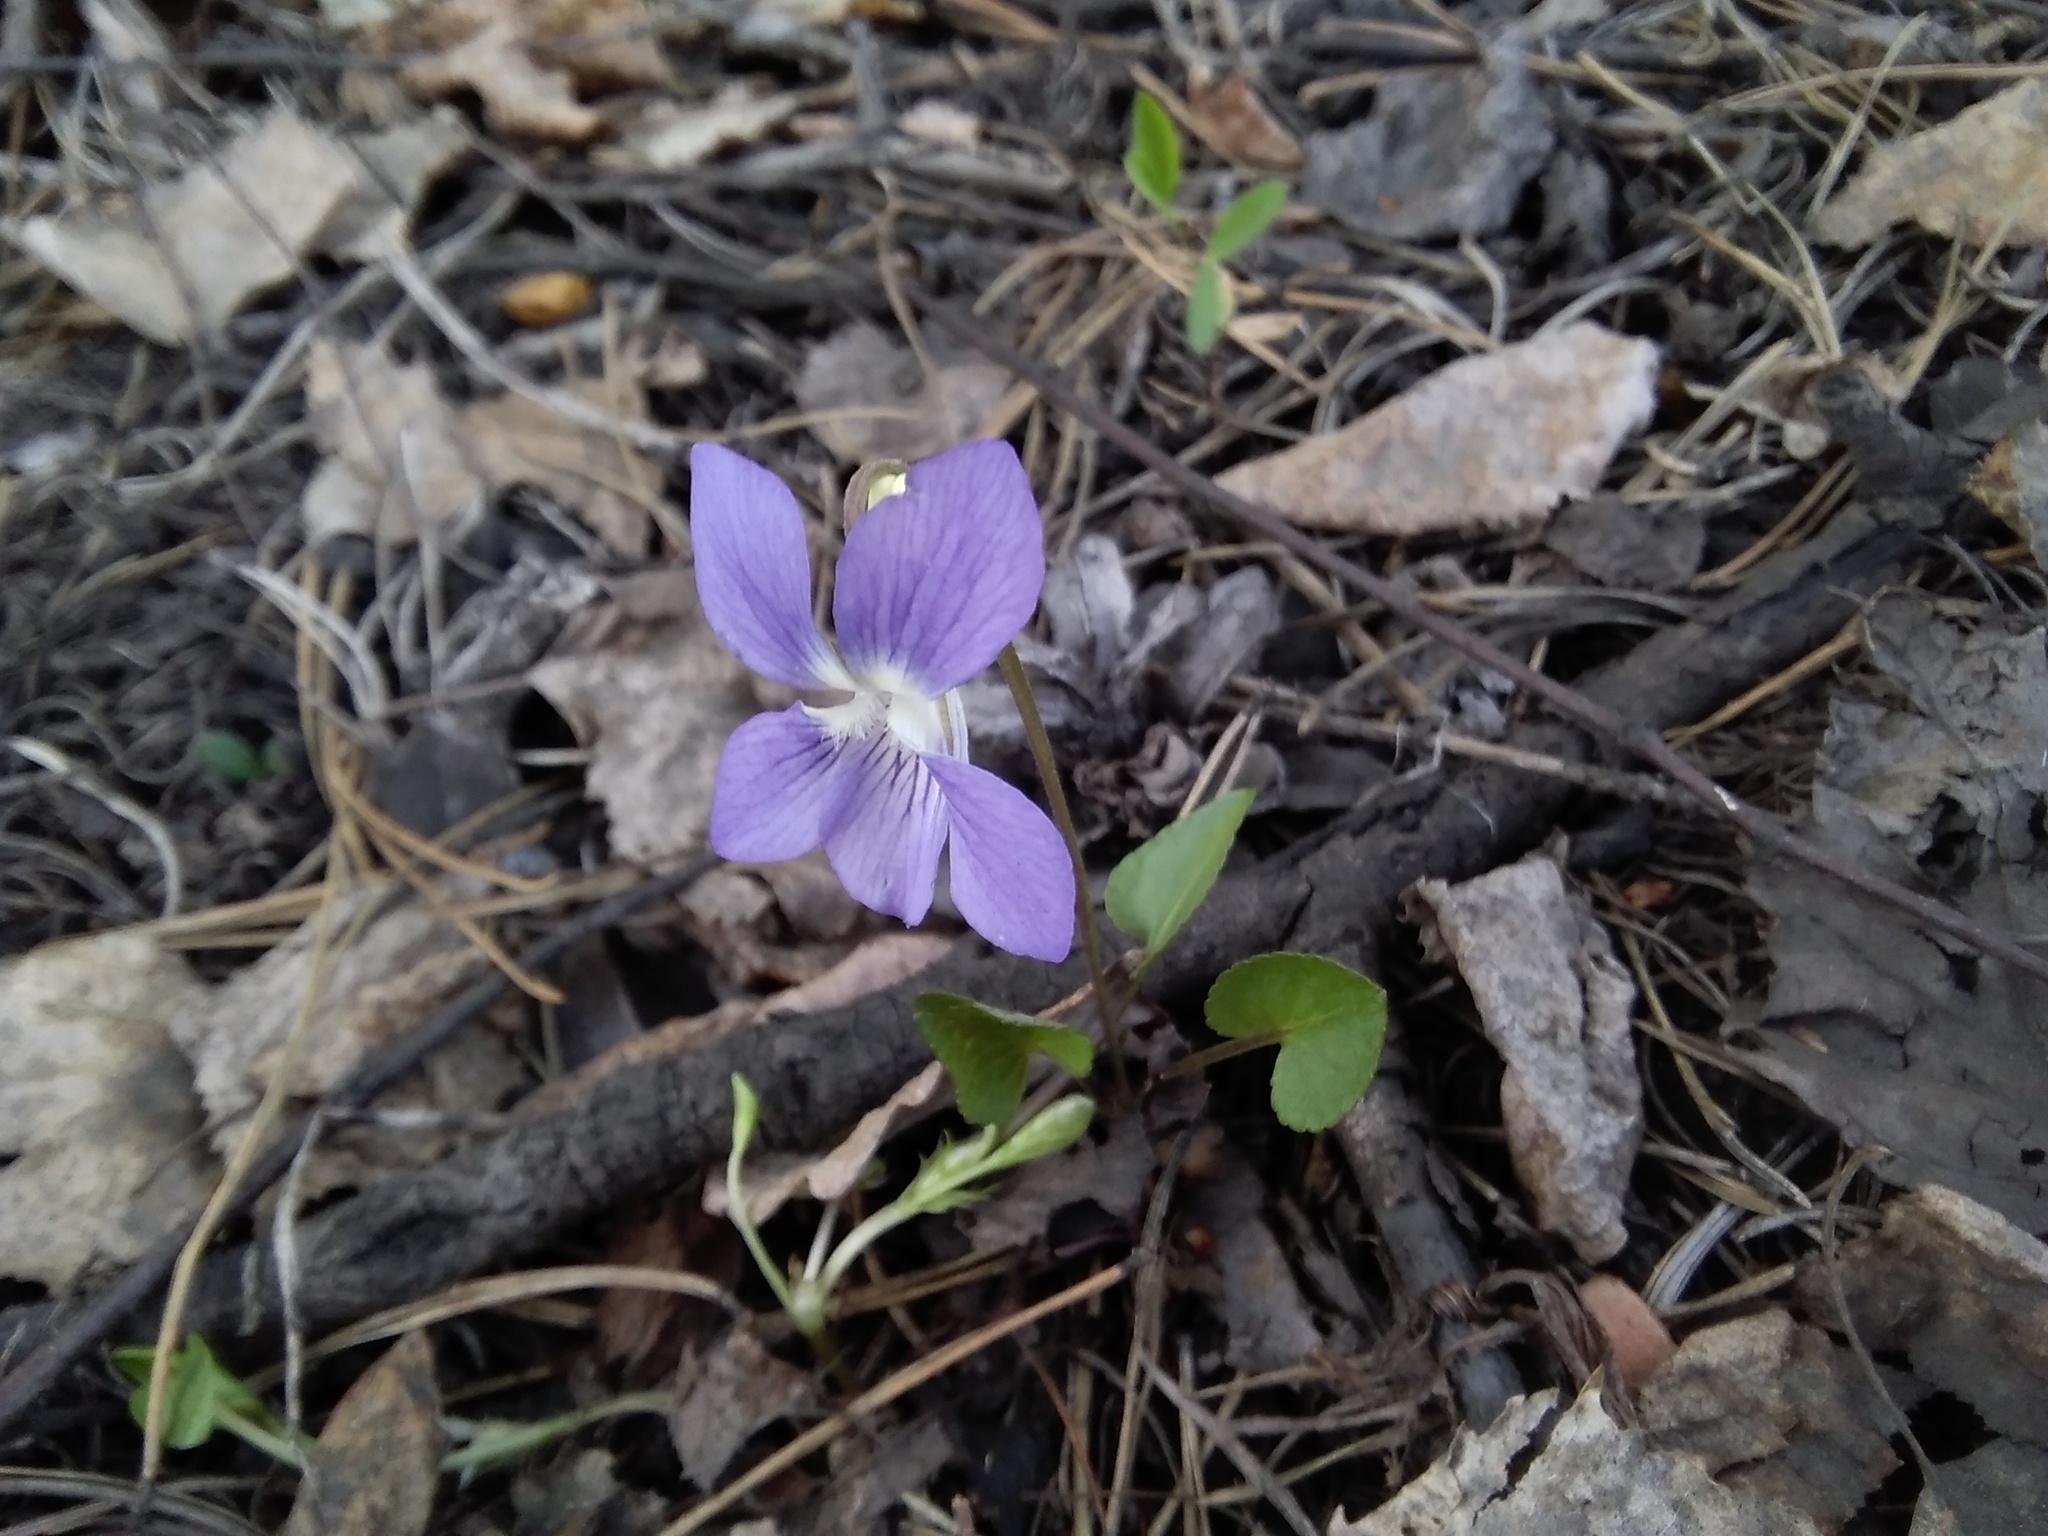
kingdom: Plantae
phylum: Tracheophyta
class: Magnoliopsida
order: Malpighiales
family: Violaceae
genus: Viola
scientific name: Viola rupestris
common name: Teesdale violet
